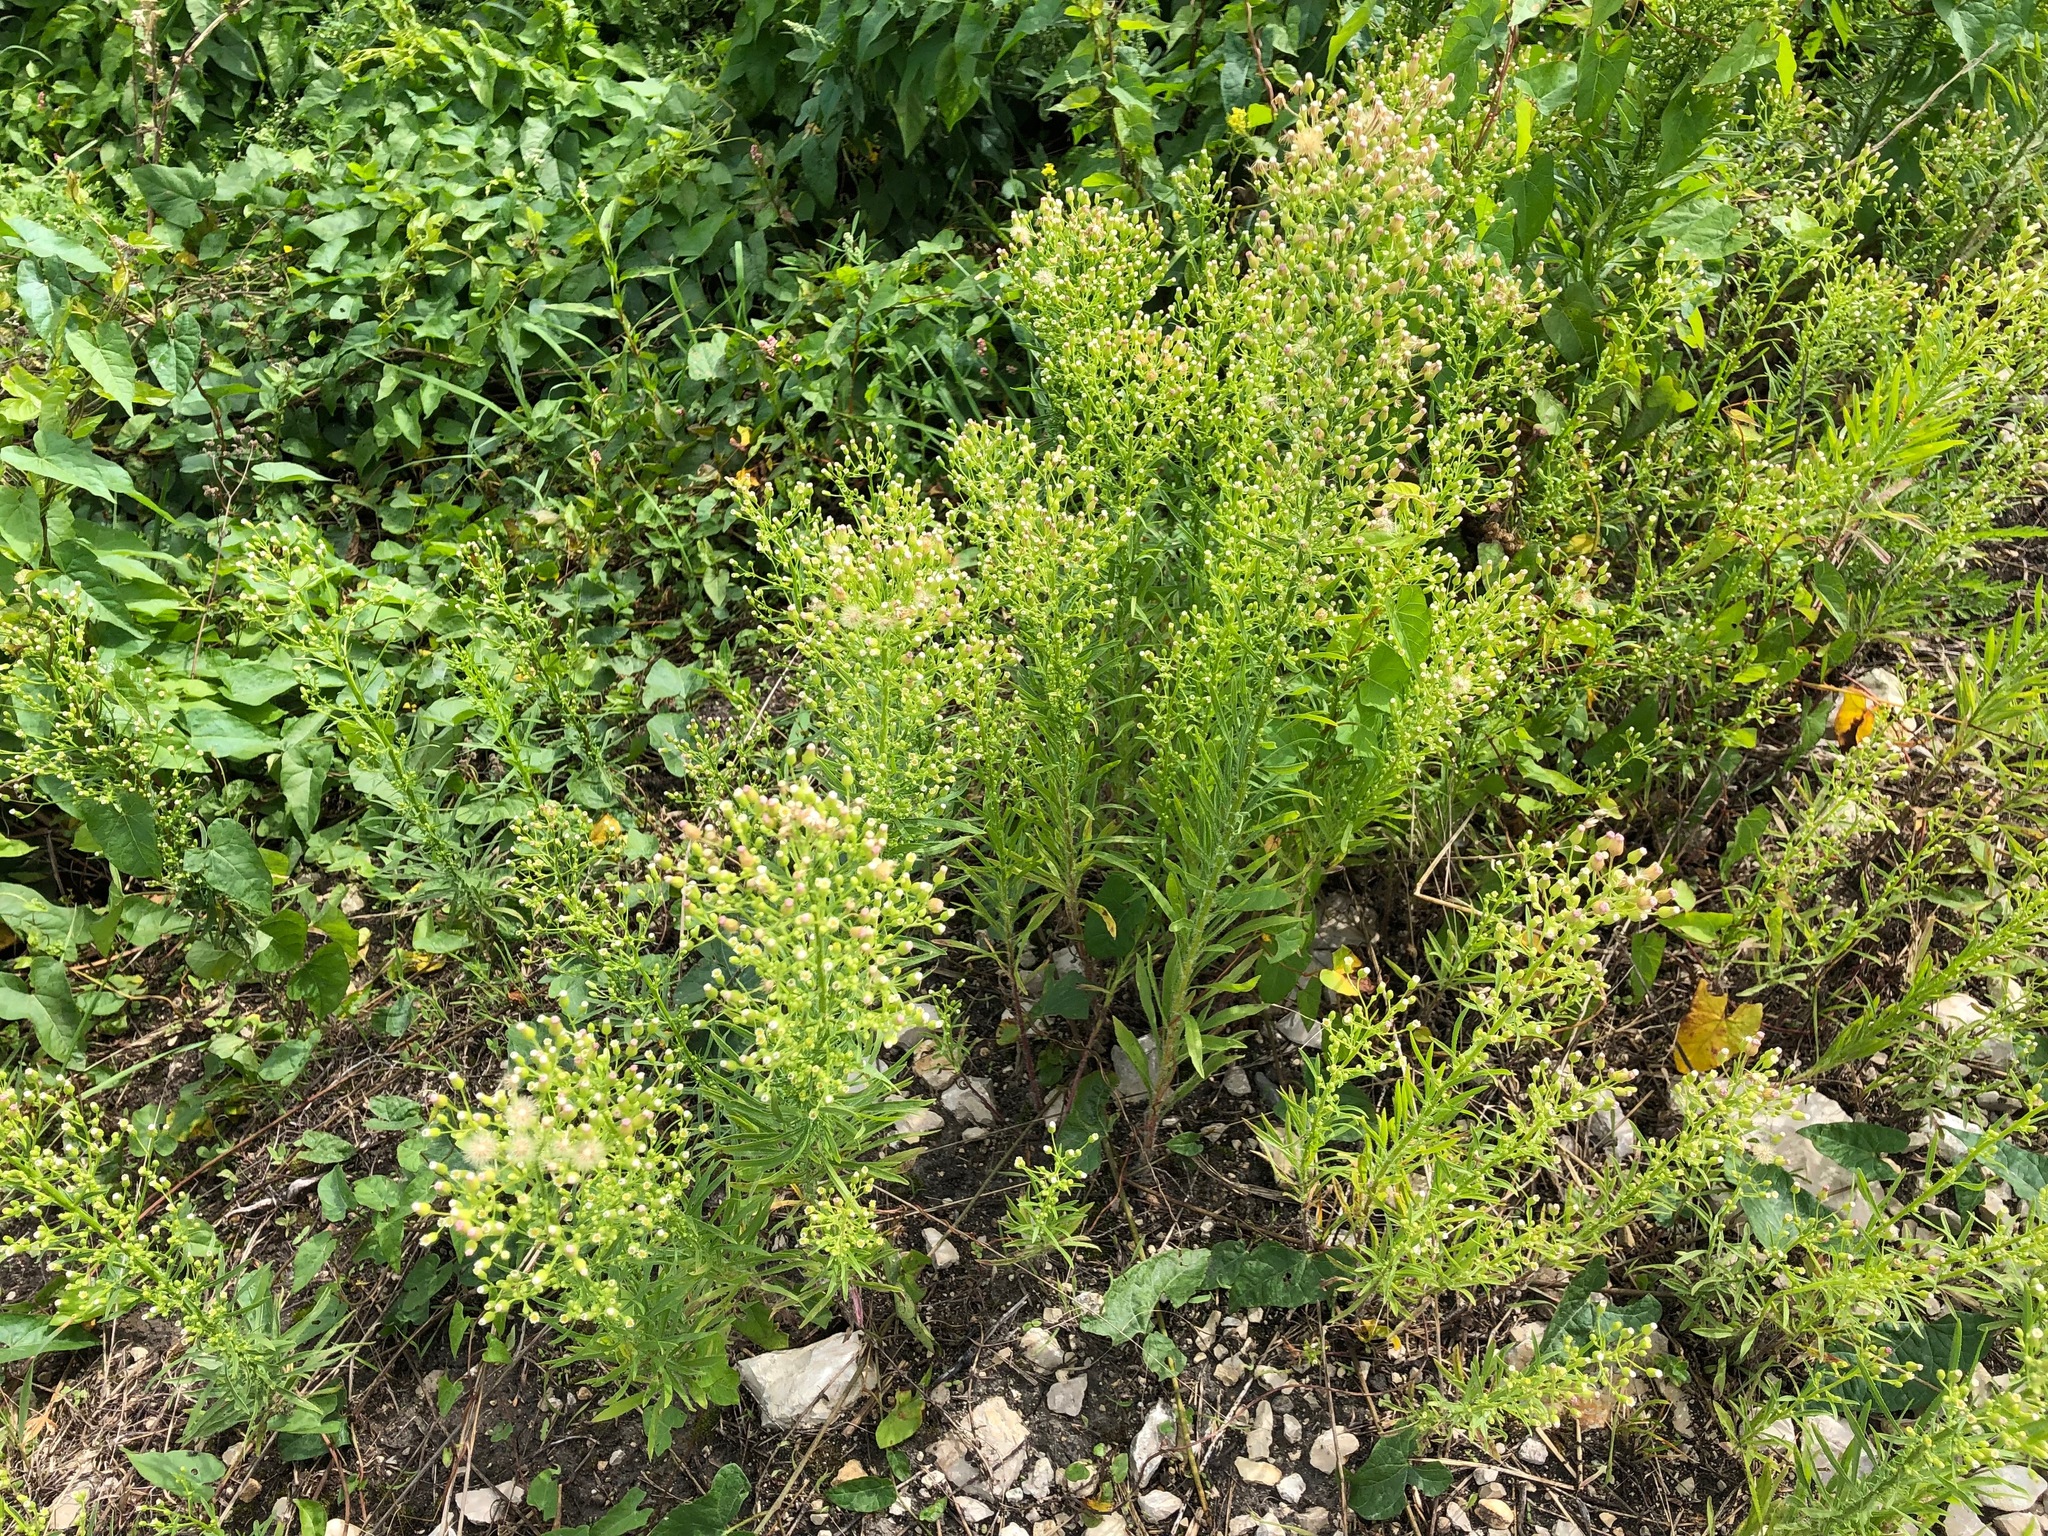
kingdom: Plantae
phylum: Tracheophyta
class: Magnoliopsida
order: Asterales
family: Asteraceae
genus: Erigeron
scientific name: Erigeron canadensis
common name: Canadian fleabane
